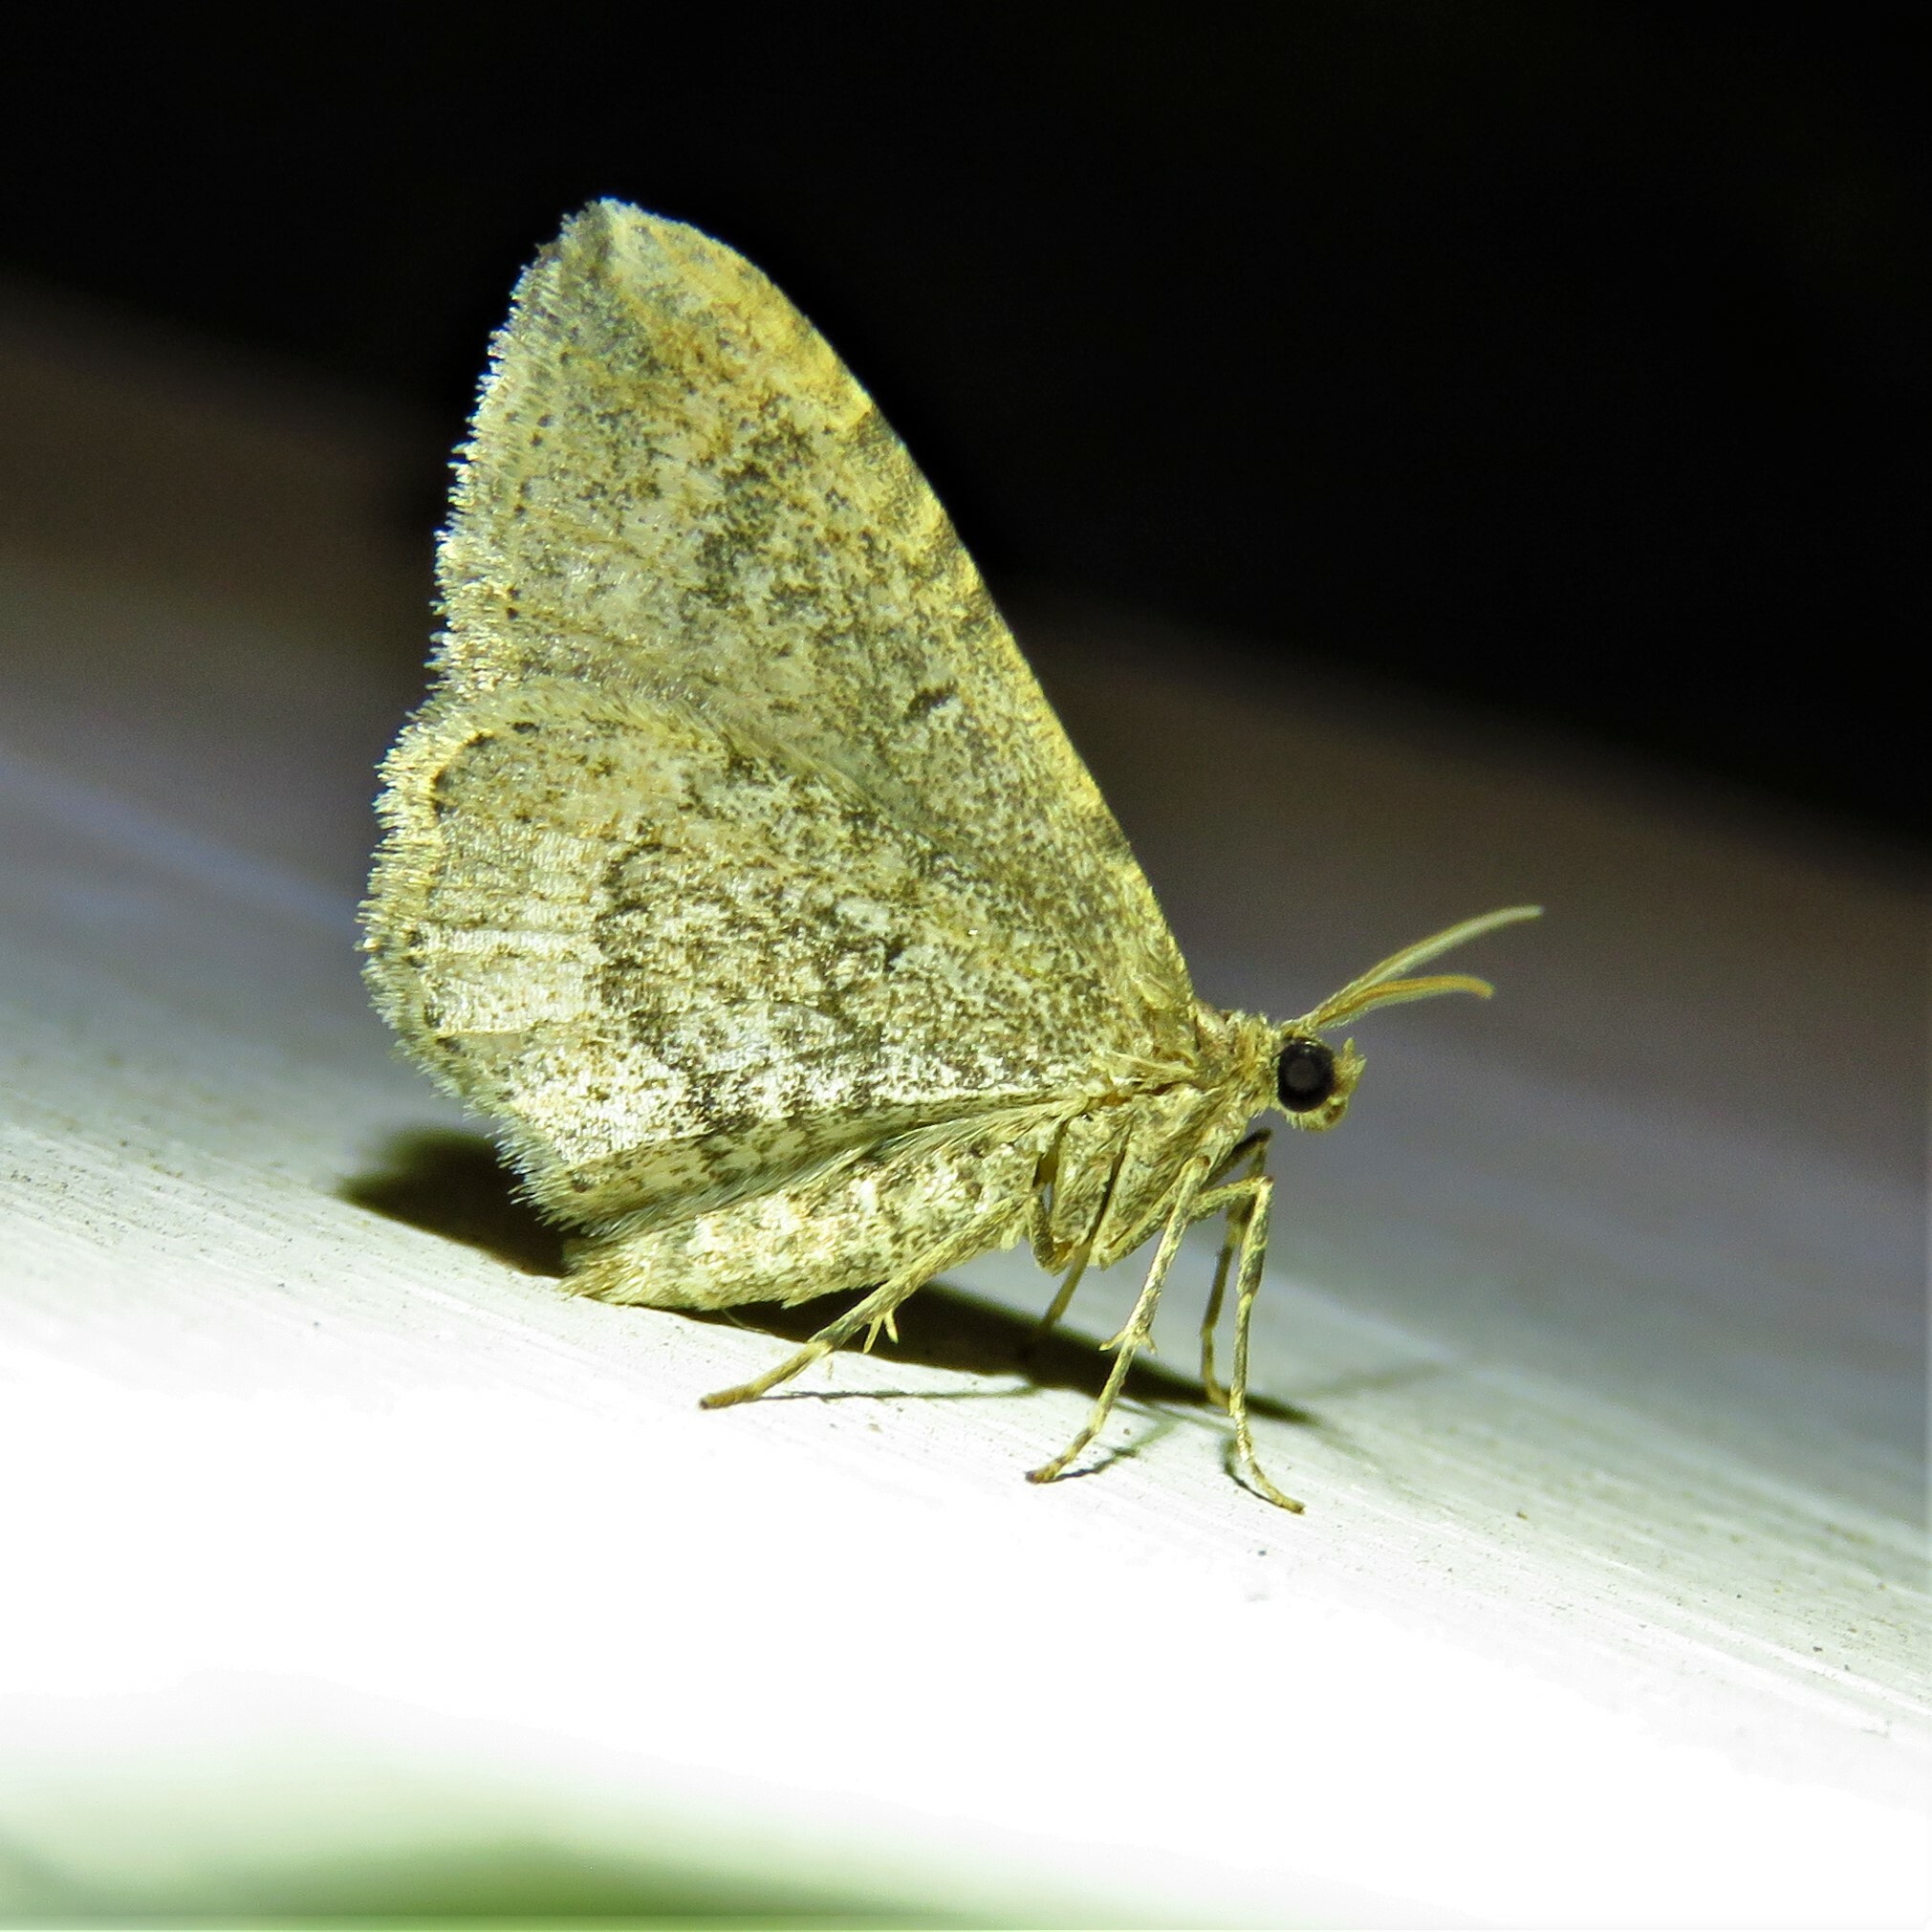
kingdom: Animalia
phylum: Arthropoda
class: Insecta
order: Lepidoptera
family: Geometridae
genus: Orthonama
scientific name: Orthonama obstipata
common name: The gem
